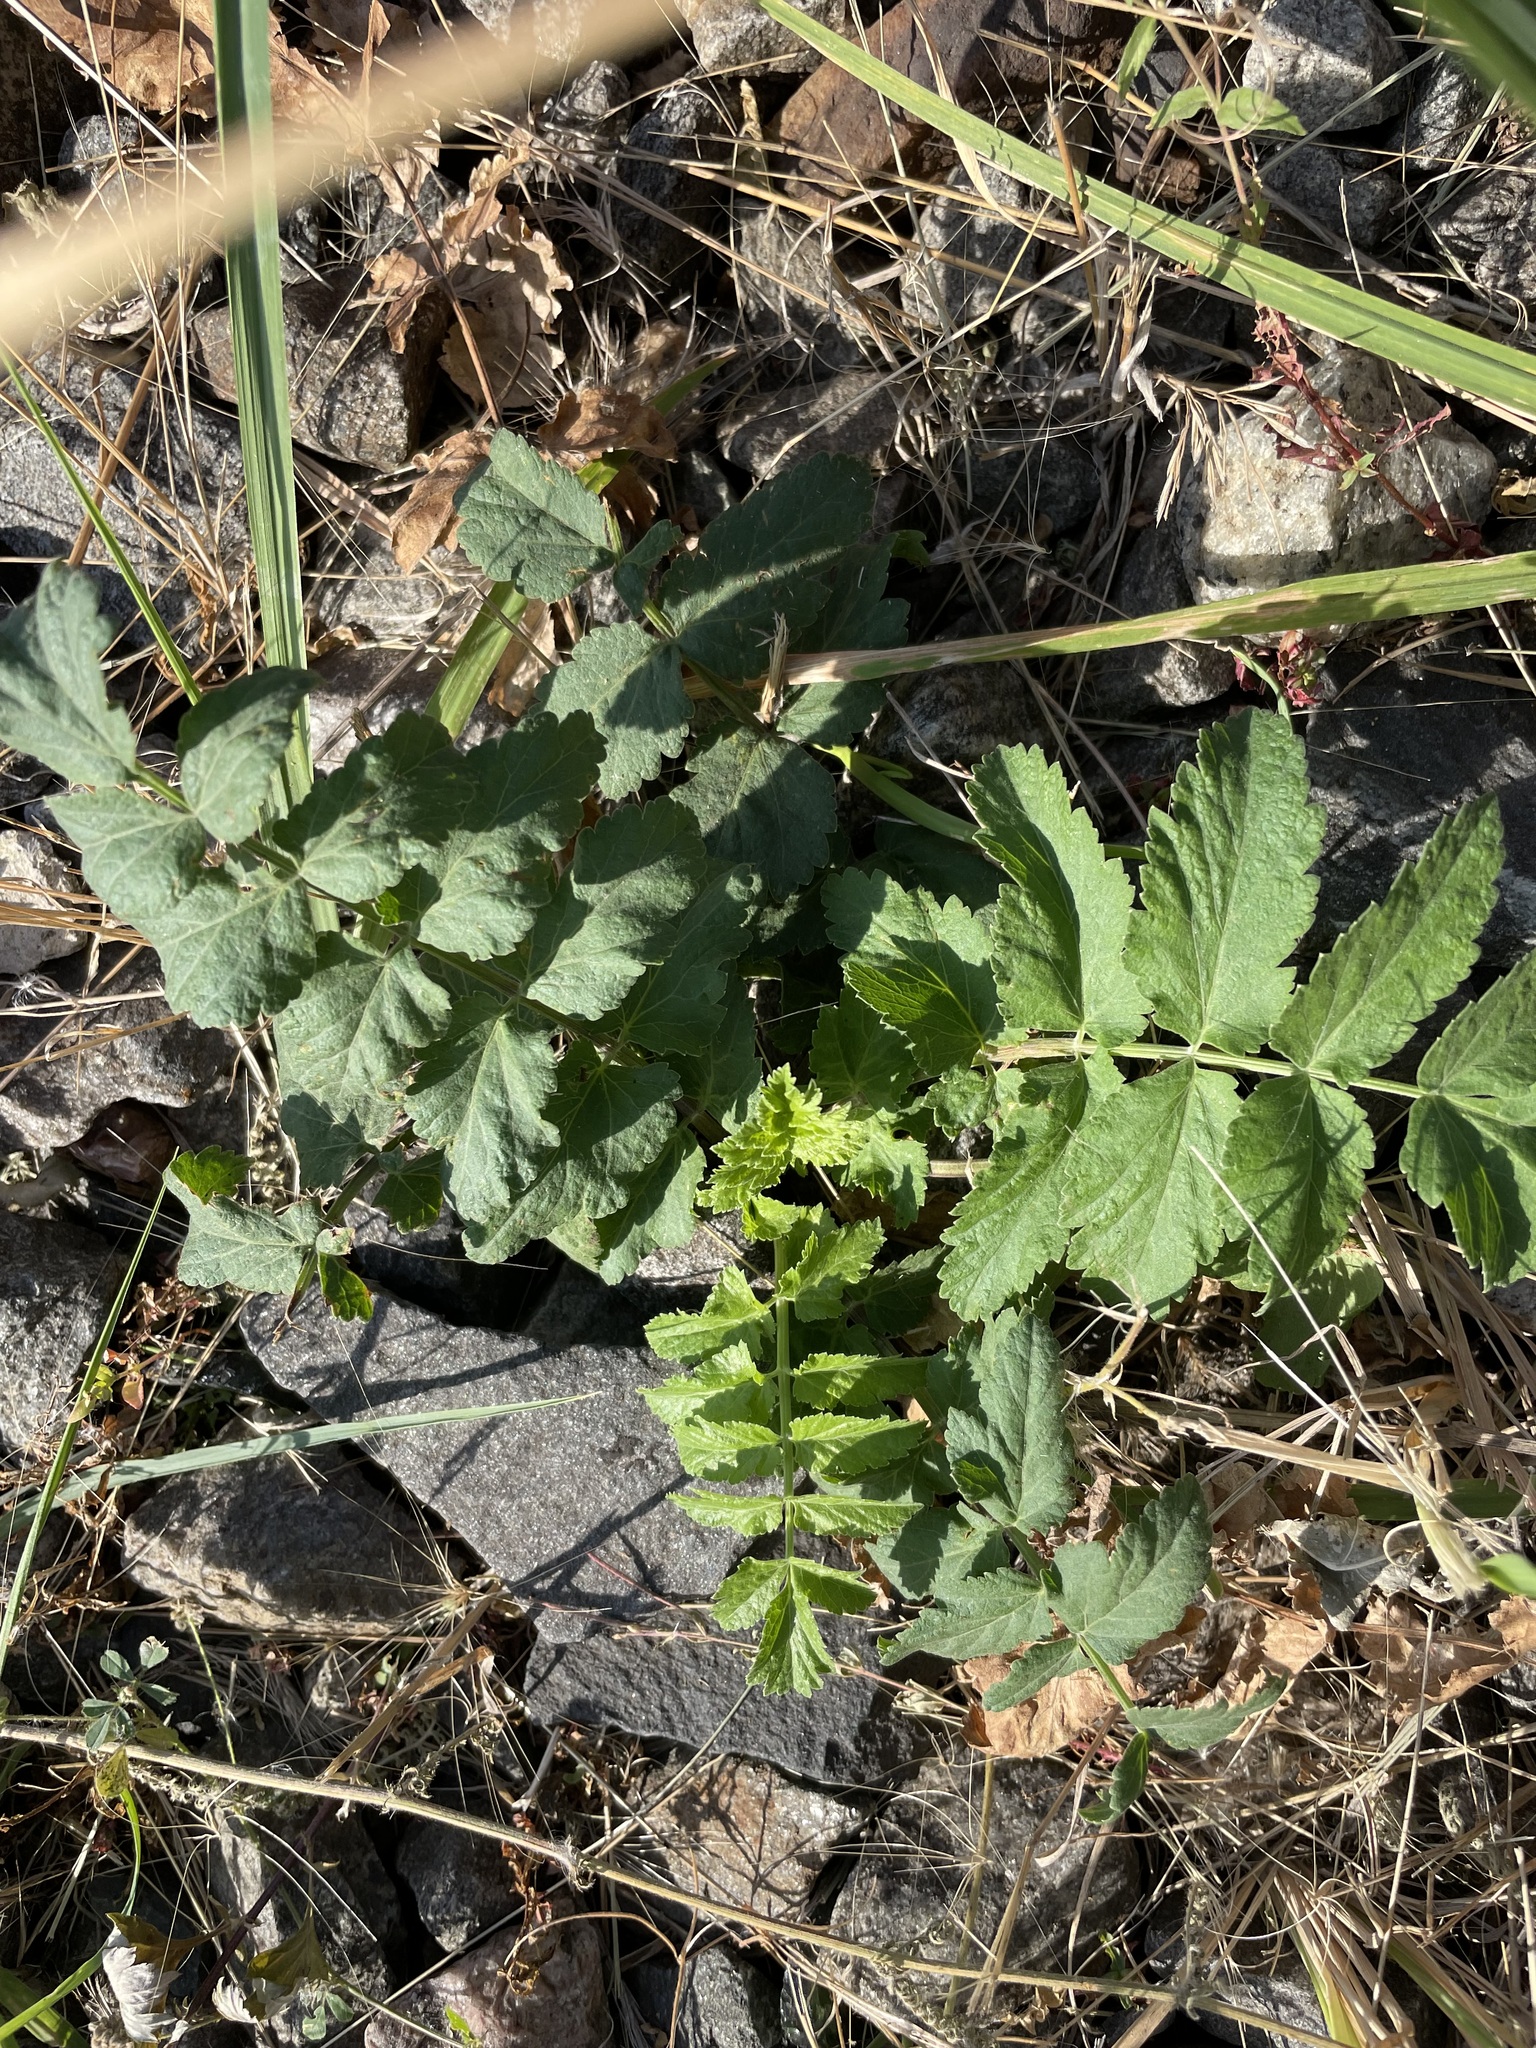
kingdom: Plantae
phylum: Tracheophyta
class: Magnoliopsida
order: Apiales
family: Apiaceae
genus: Pimpinella
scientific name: Pimpinella saxifraga
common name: Burnet-saxifrage
